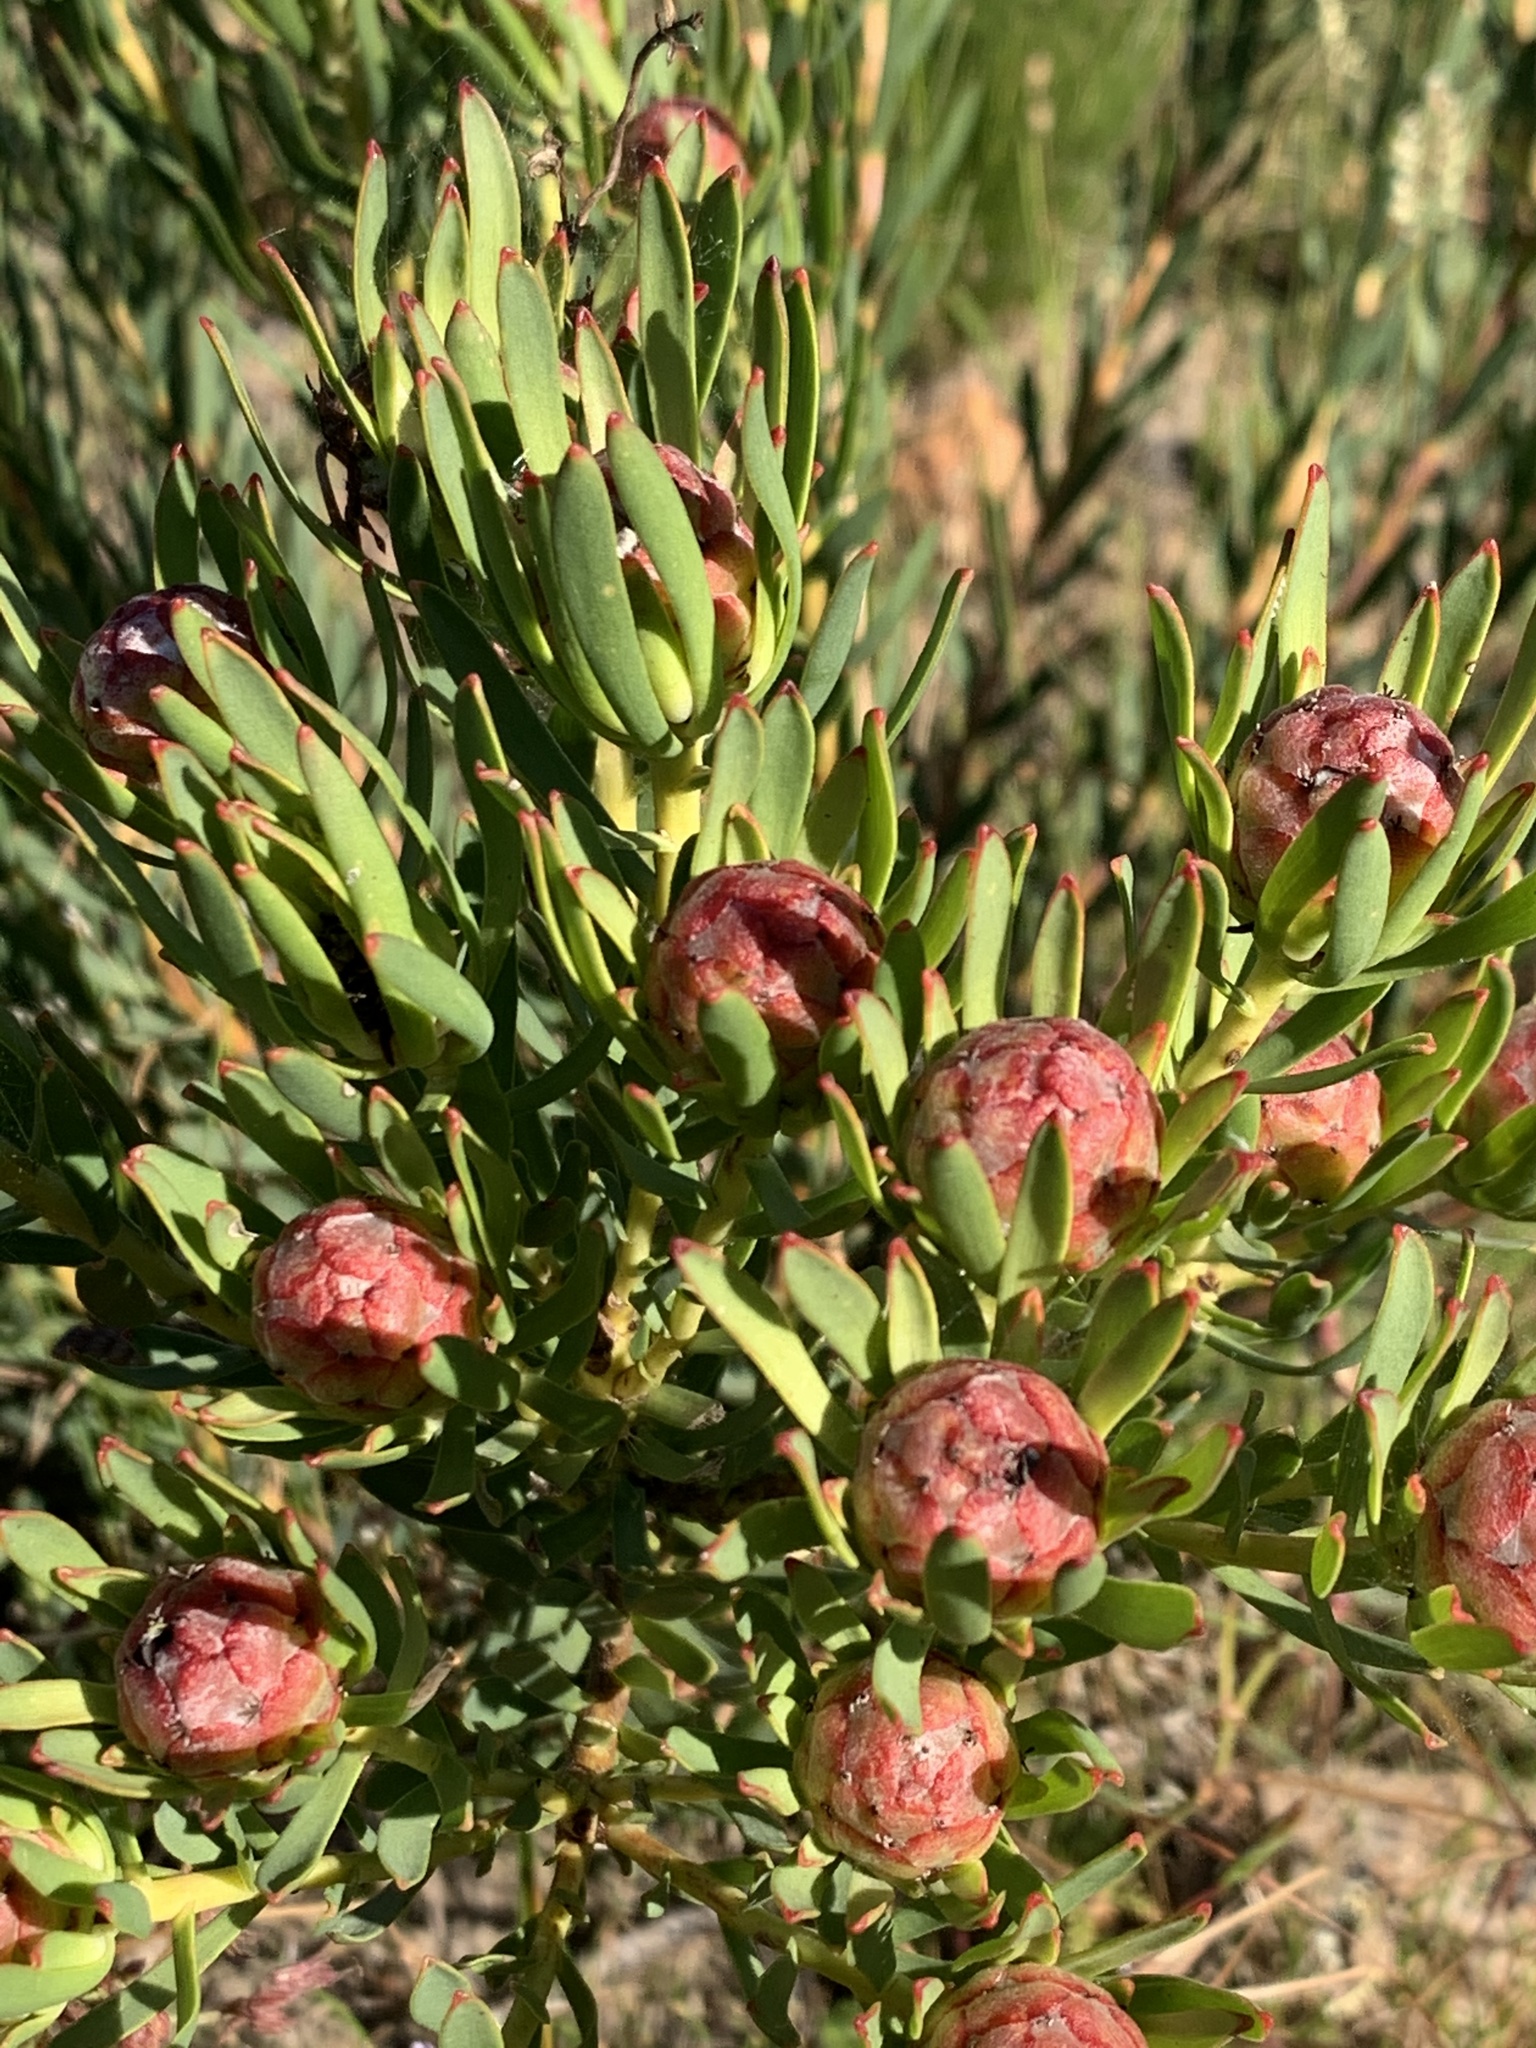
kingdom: Plantae
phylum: Tracheophyta
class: Magnoliopsida
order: Proteales
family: Proteaceae
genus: Leucadendron
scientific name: Leucadendron lanigerum
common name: Shale conebush
